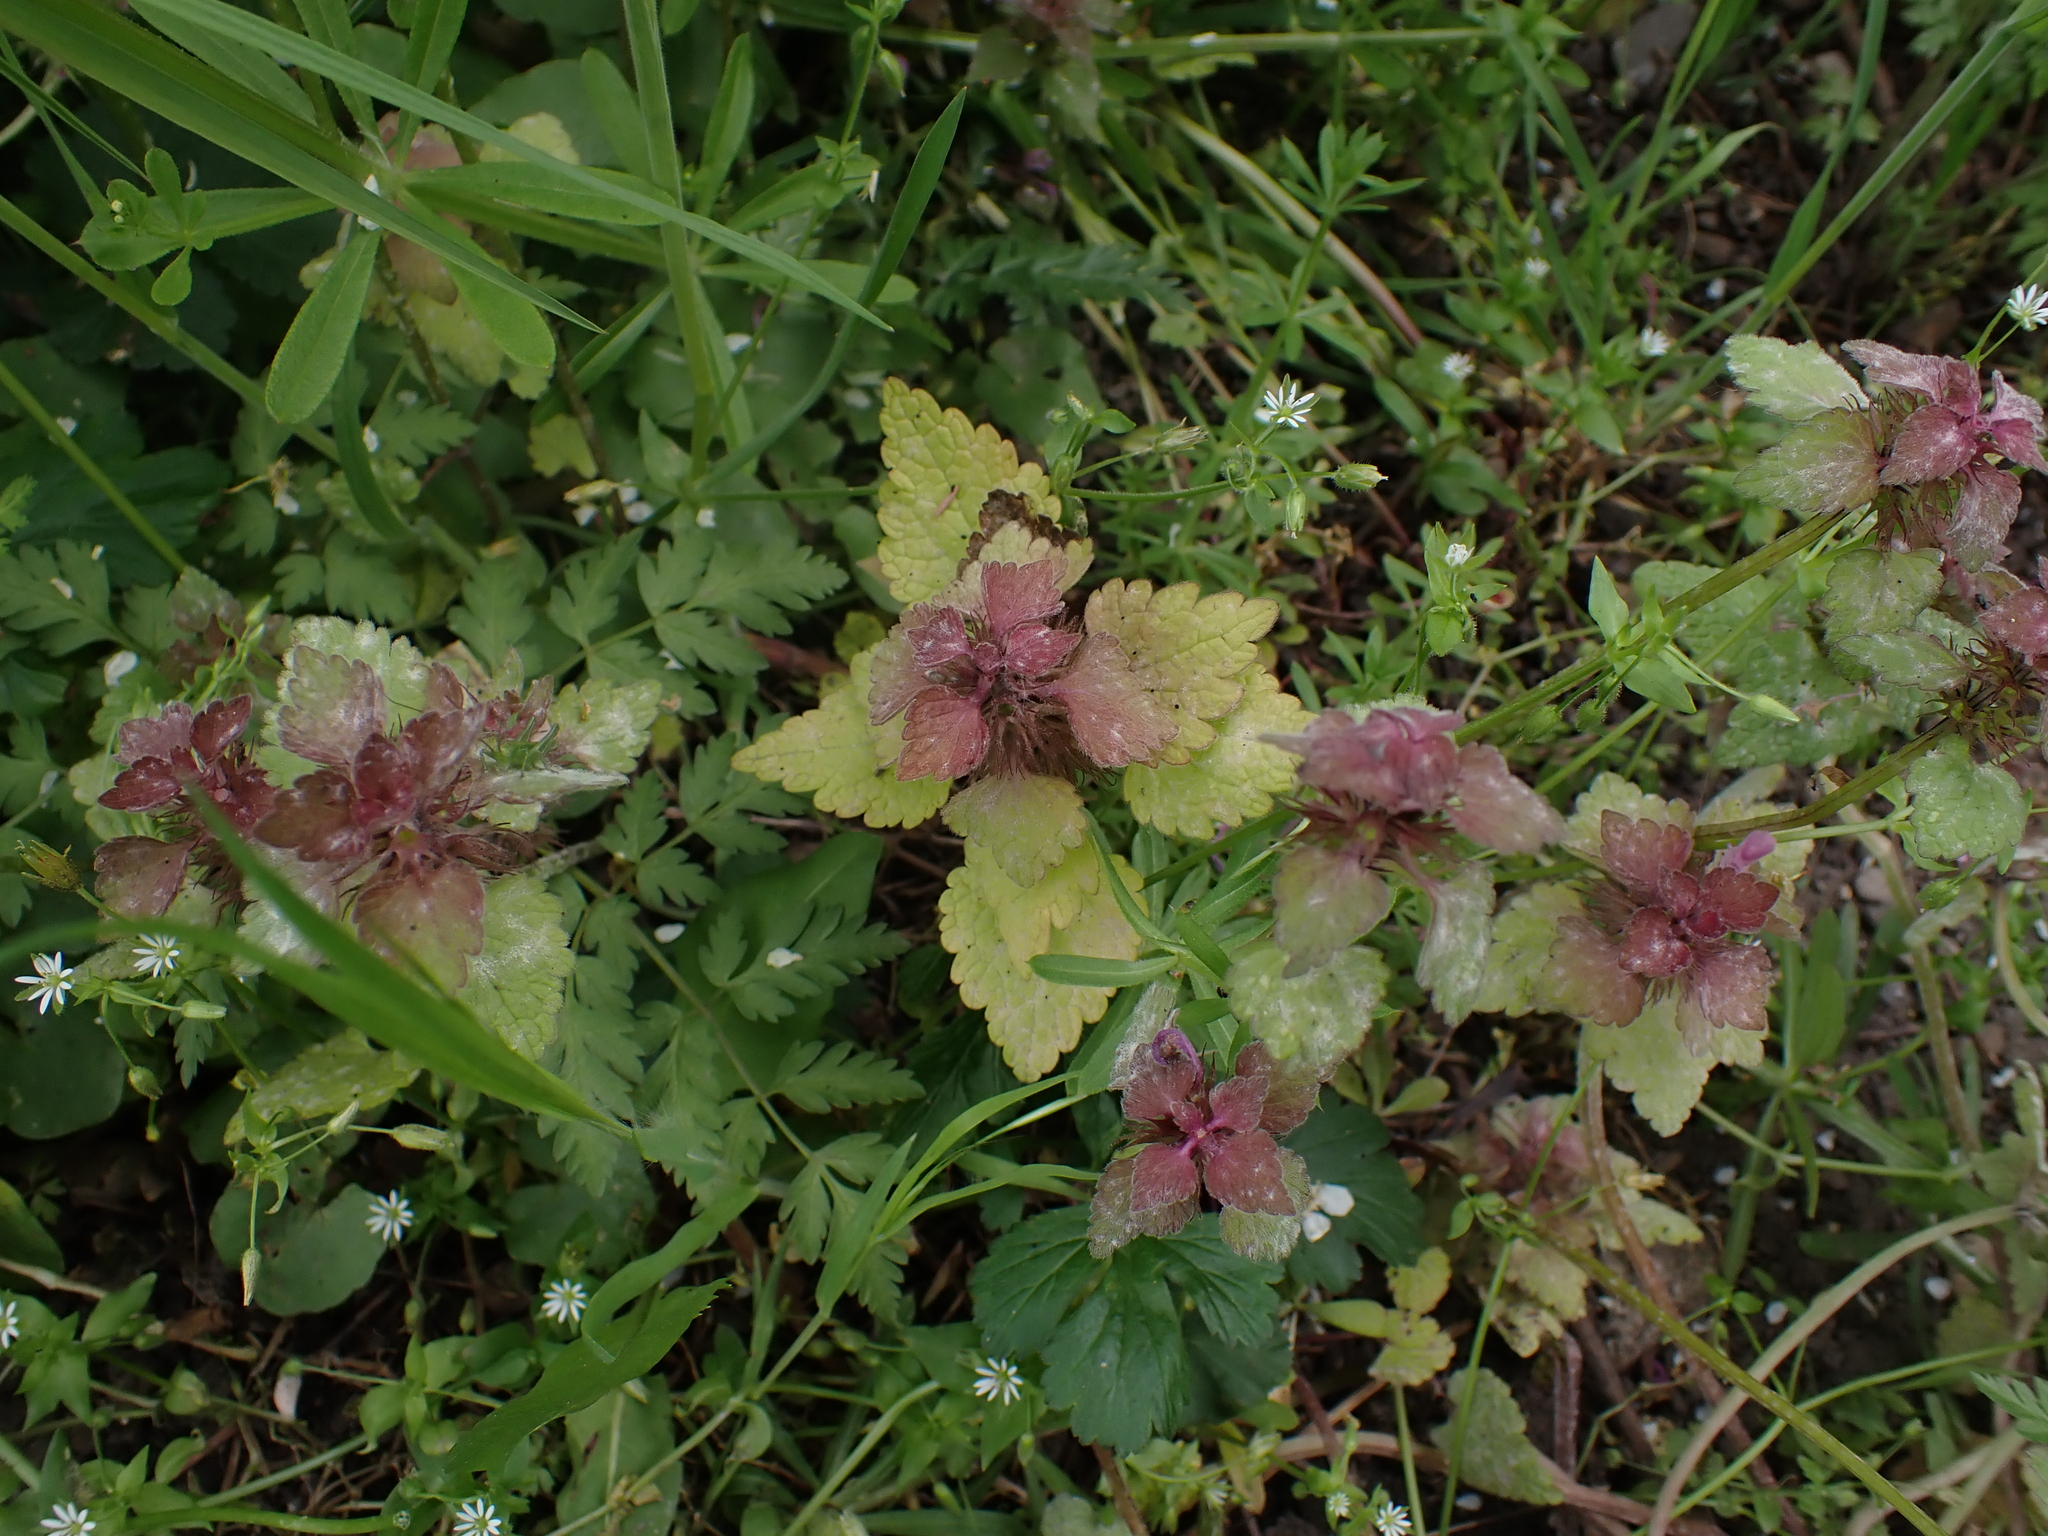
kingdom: Fungi
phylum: Ascomycota
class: Leotiomycetes
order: Helotiales
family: Erysiphaceae
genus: Neoerysiphe
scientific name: Neoerysiphe galeopsidis
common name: Mint mildew
